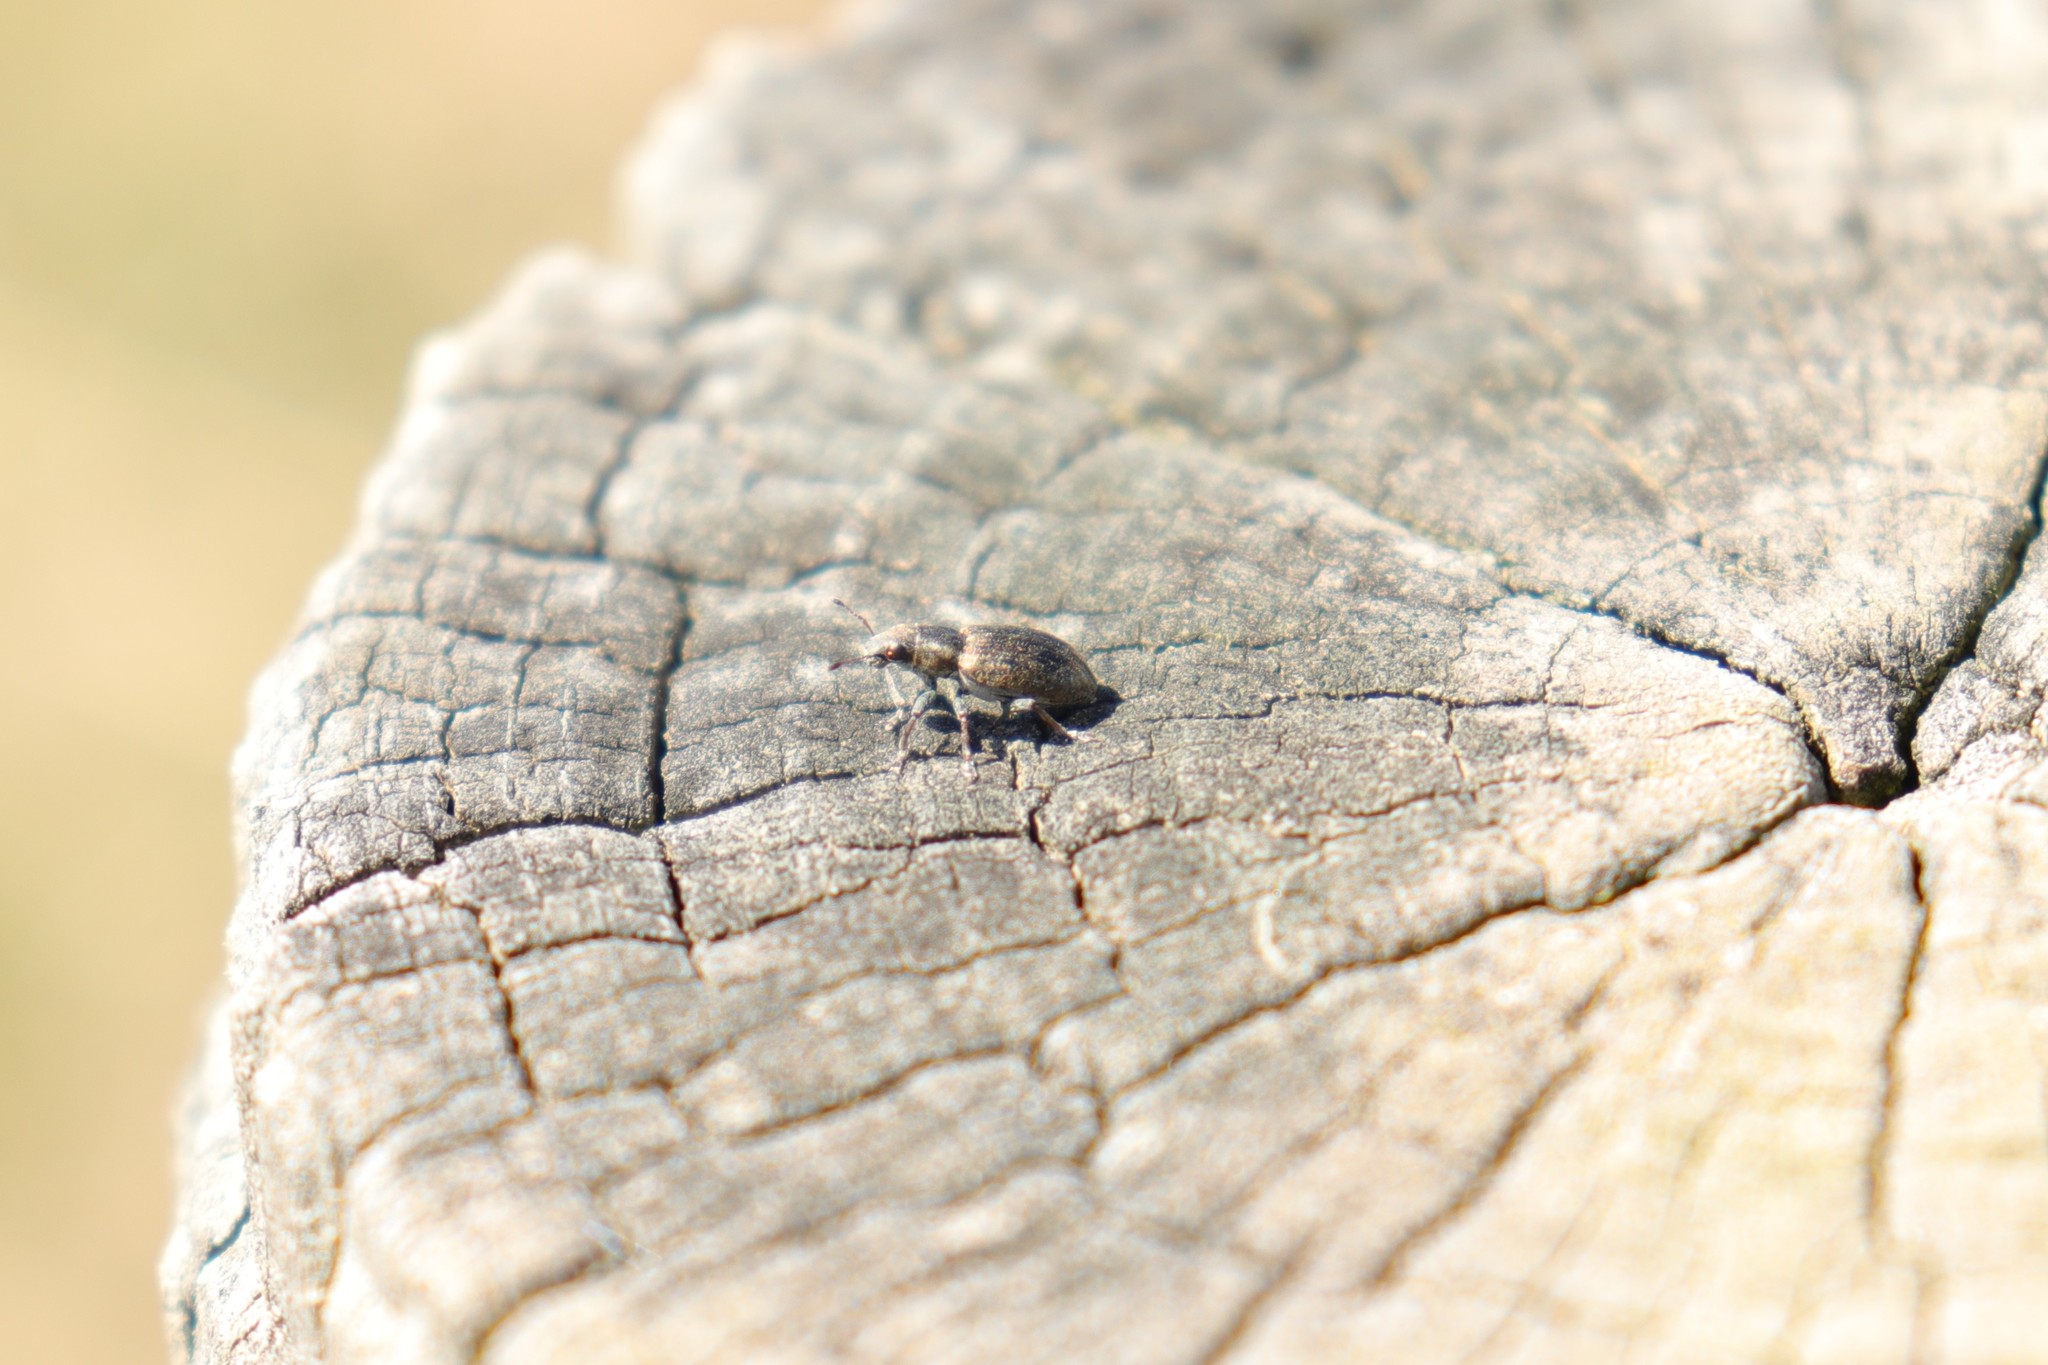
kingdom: Animalia
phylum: Arthropoda
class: Insecta
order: Coleoptera
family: Curculionidae
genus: Sitona
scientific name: Sitona obsoletus
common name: Weevil
